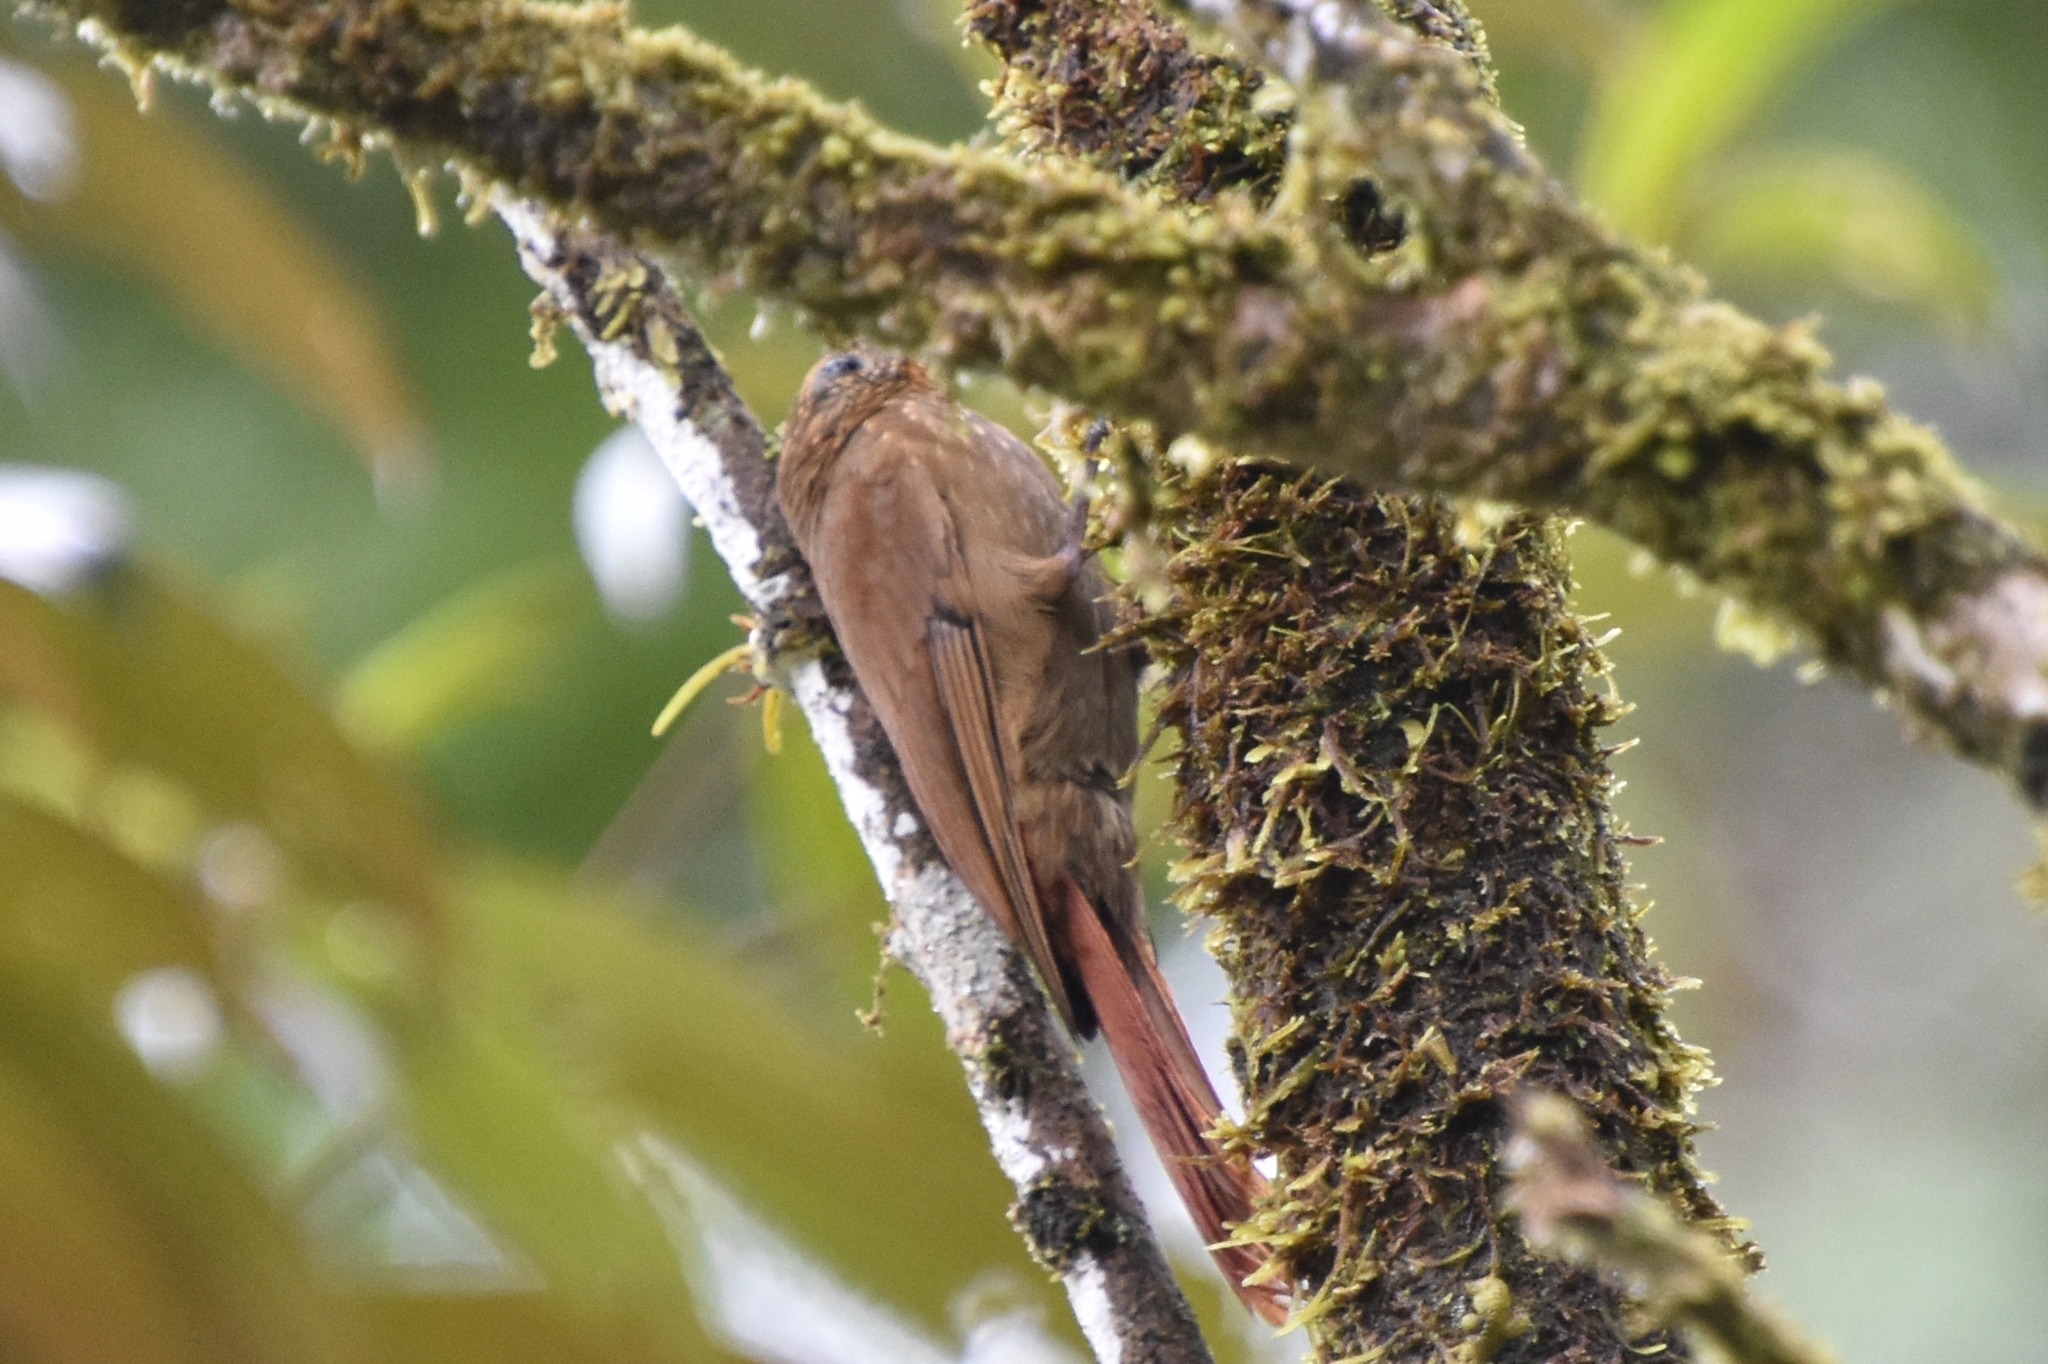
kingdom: Animalia
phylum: Chordata
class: Aves
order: Passeriformes
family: Furnariidae
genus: Glyphorynchus
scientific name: Glyphorynchus spirurus
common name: Wedge-billed woodcreeper
